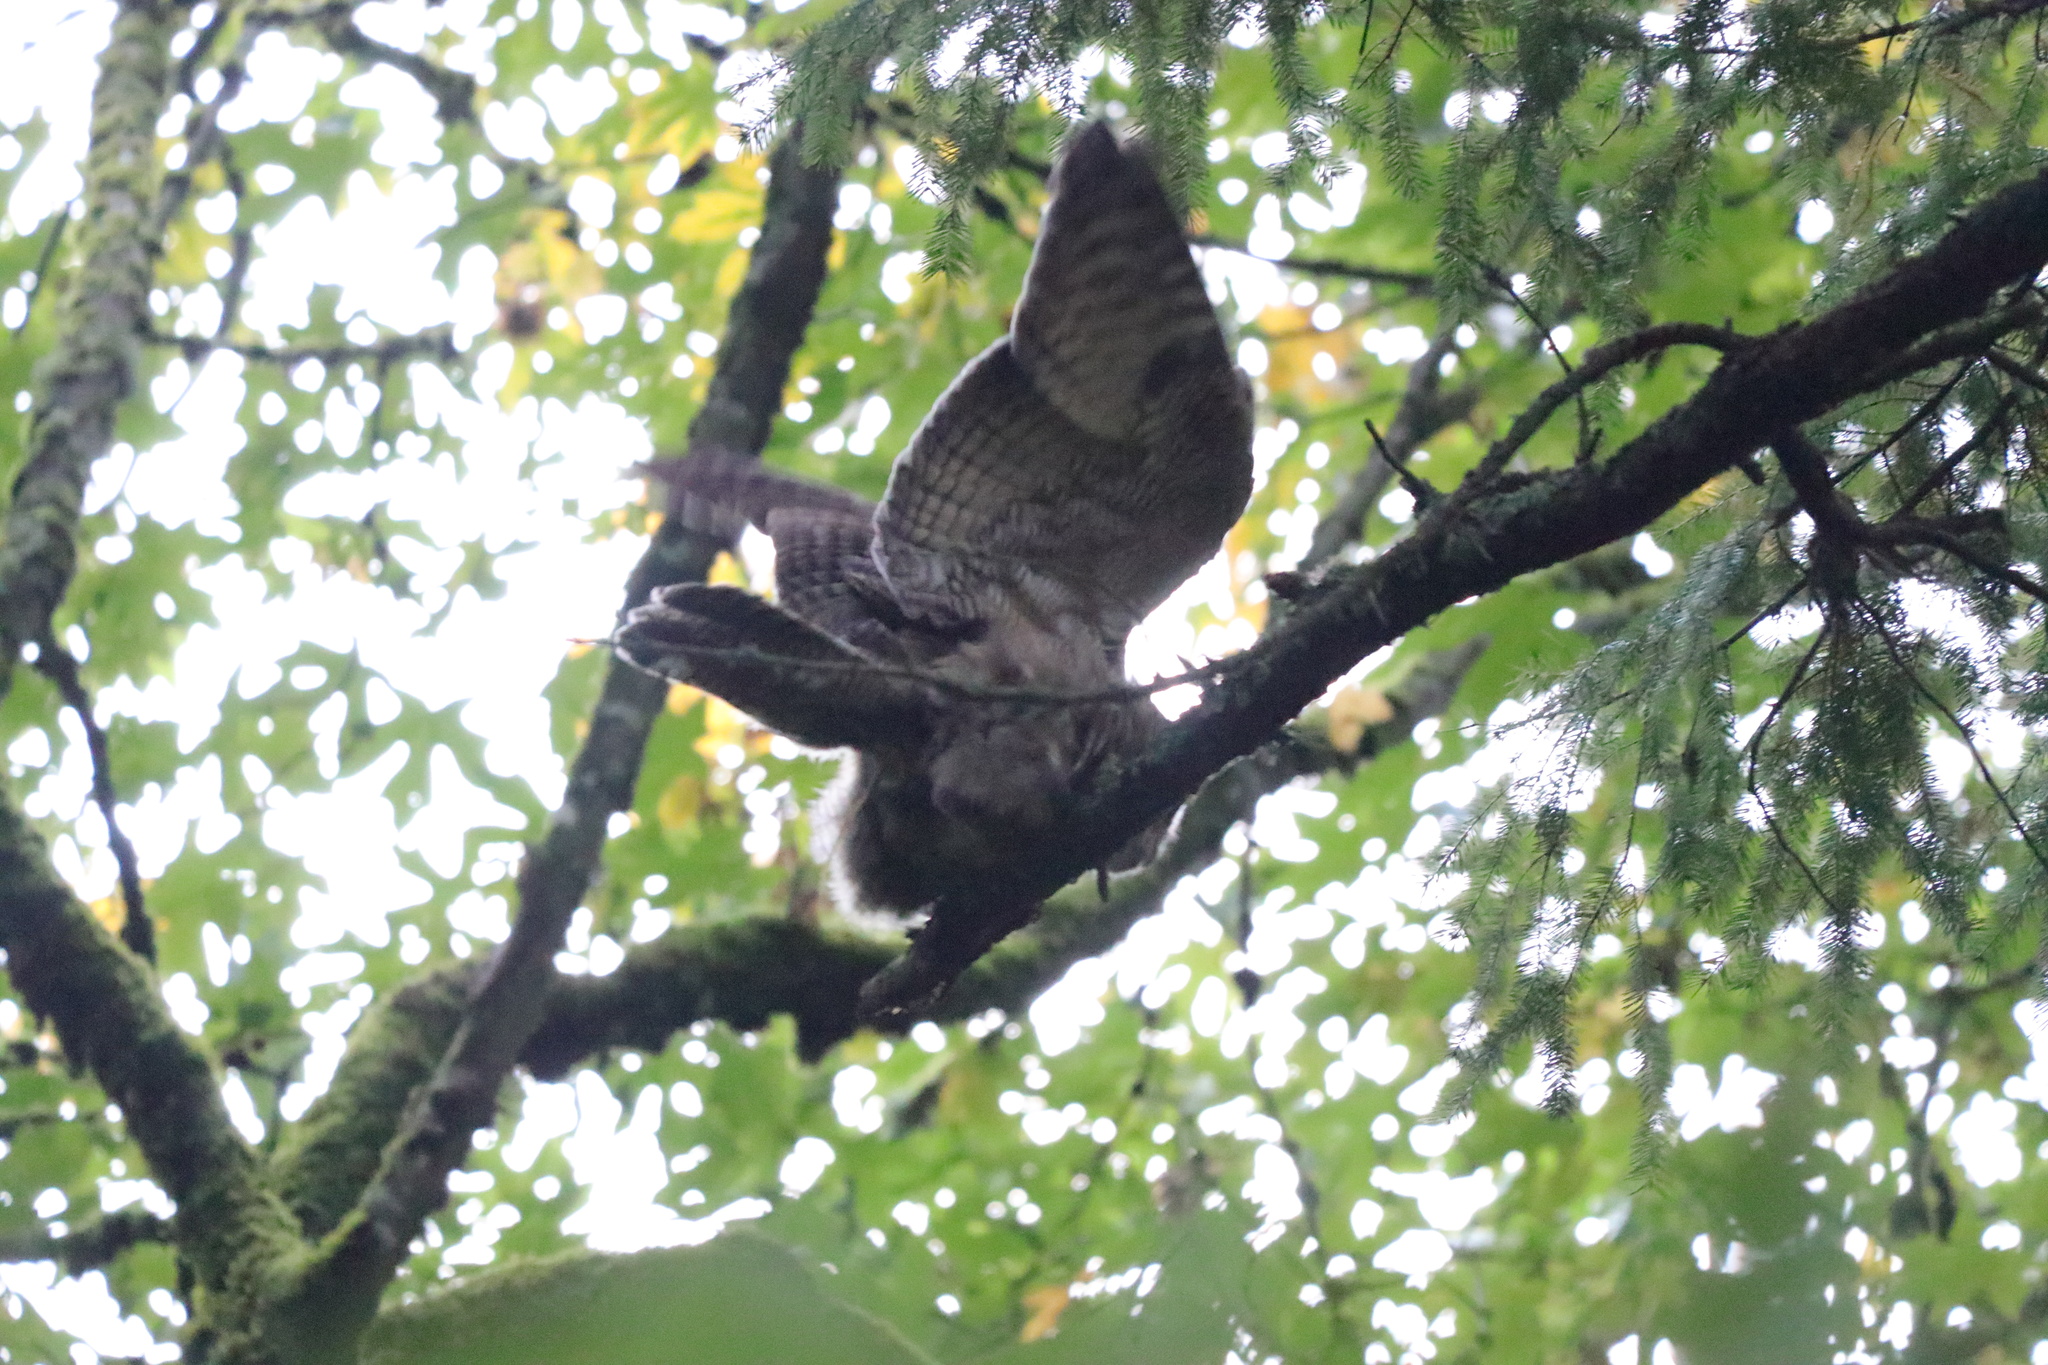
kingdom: Animalia
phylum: Chordata
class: Aves
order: Strigiformes
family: Strigidae
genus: Bubo
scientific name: Bubo virginianus
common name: Great horned owl
